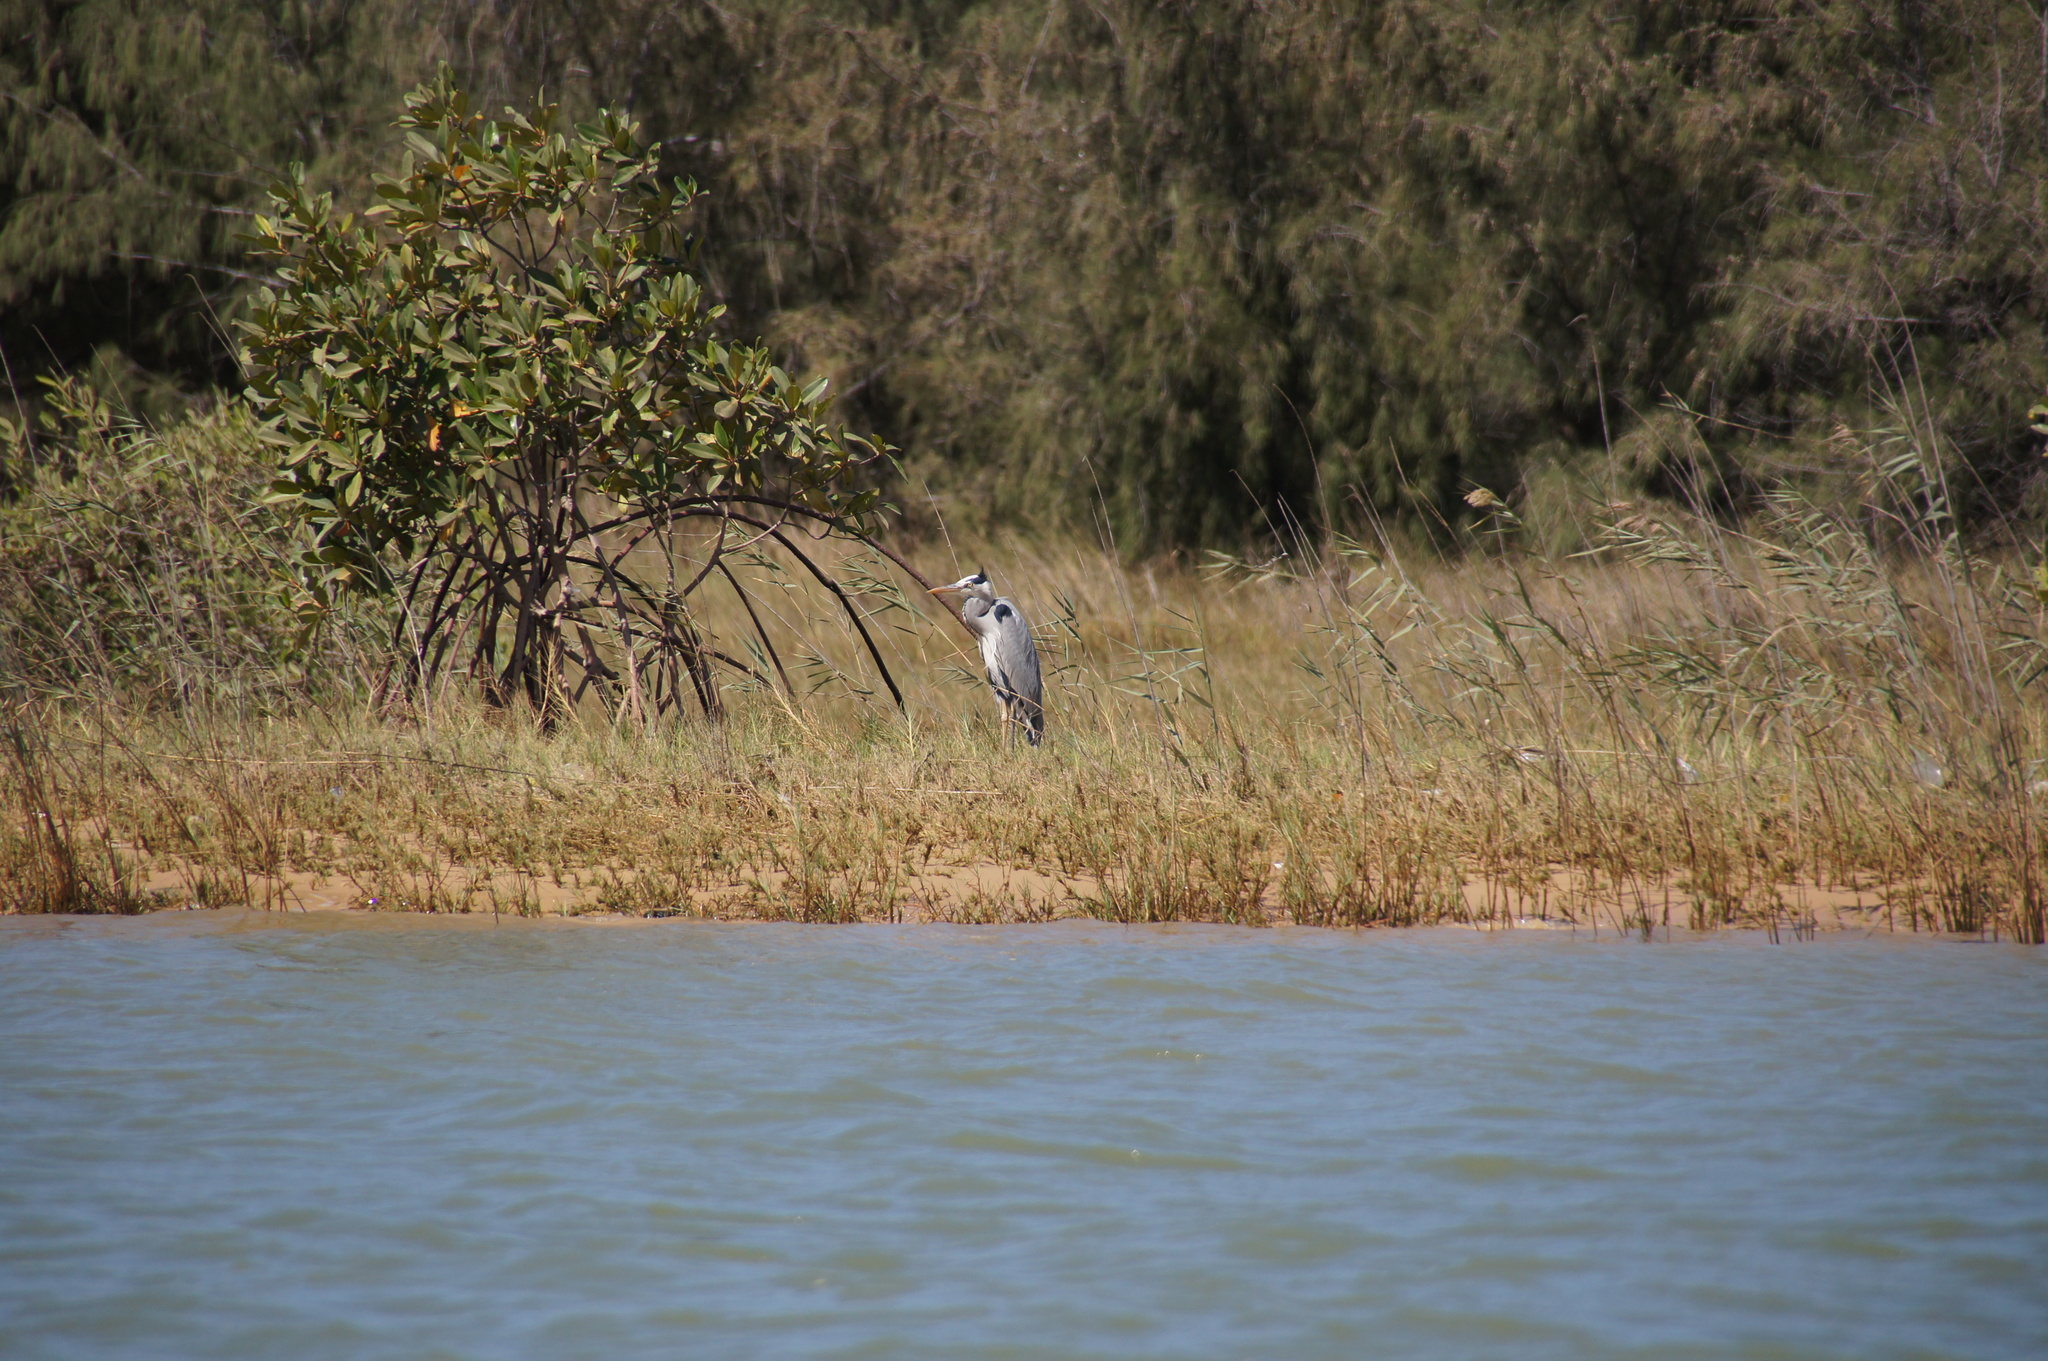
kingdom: Animalia
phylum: Chordata
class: Aves
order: Pelecaniformes
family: Ardeidae
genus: Ardea
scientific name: Ardea cinerea
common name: Grey heron
